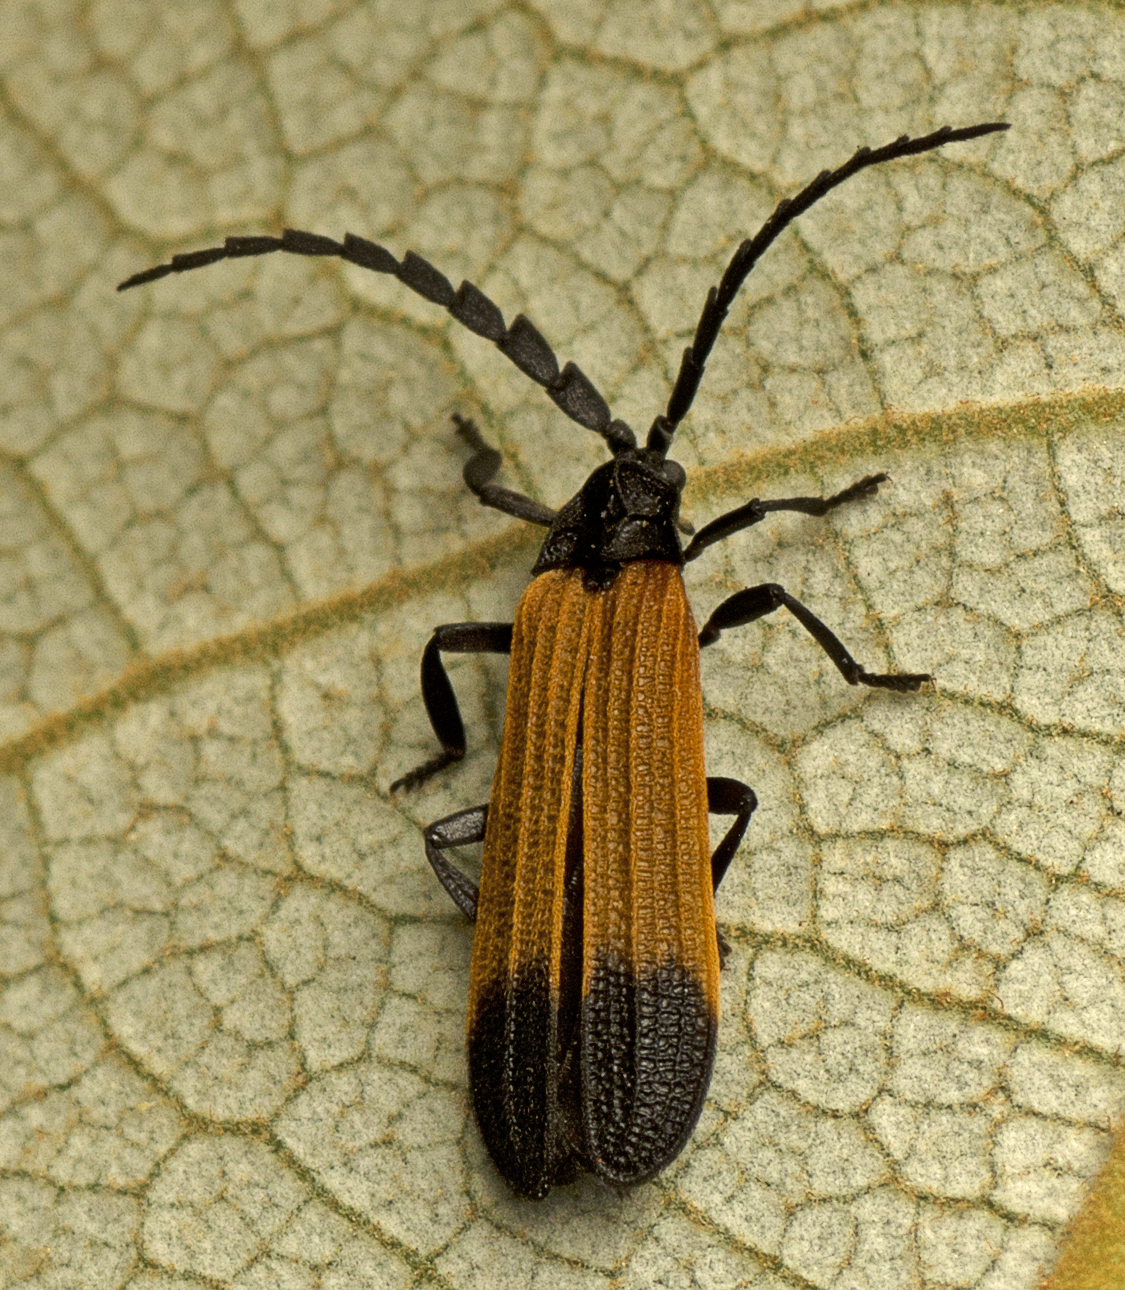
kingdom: Animalia
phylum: Arthropoda
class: Insecta
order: Coleoptera
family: Lycidae
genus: Synchonnus
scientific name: Synchonnus
